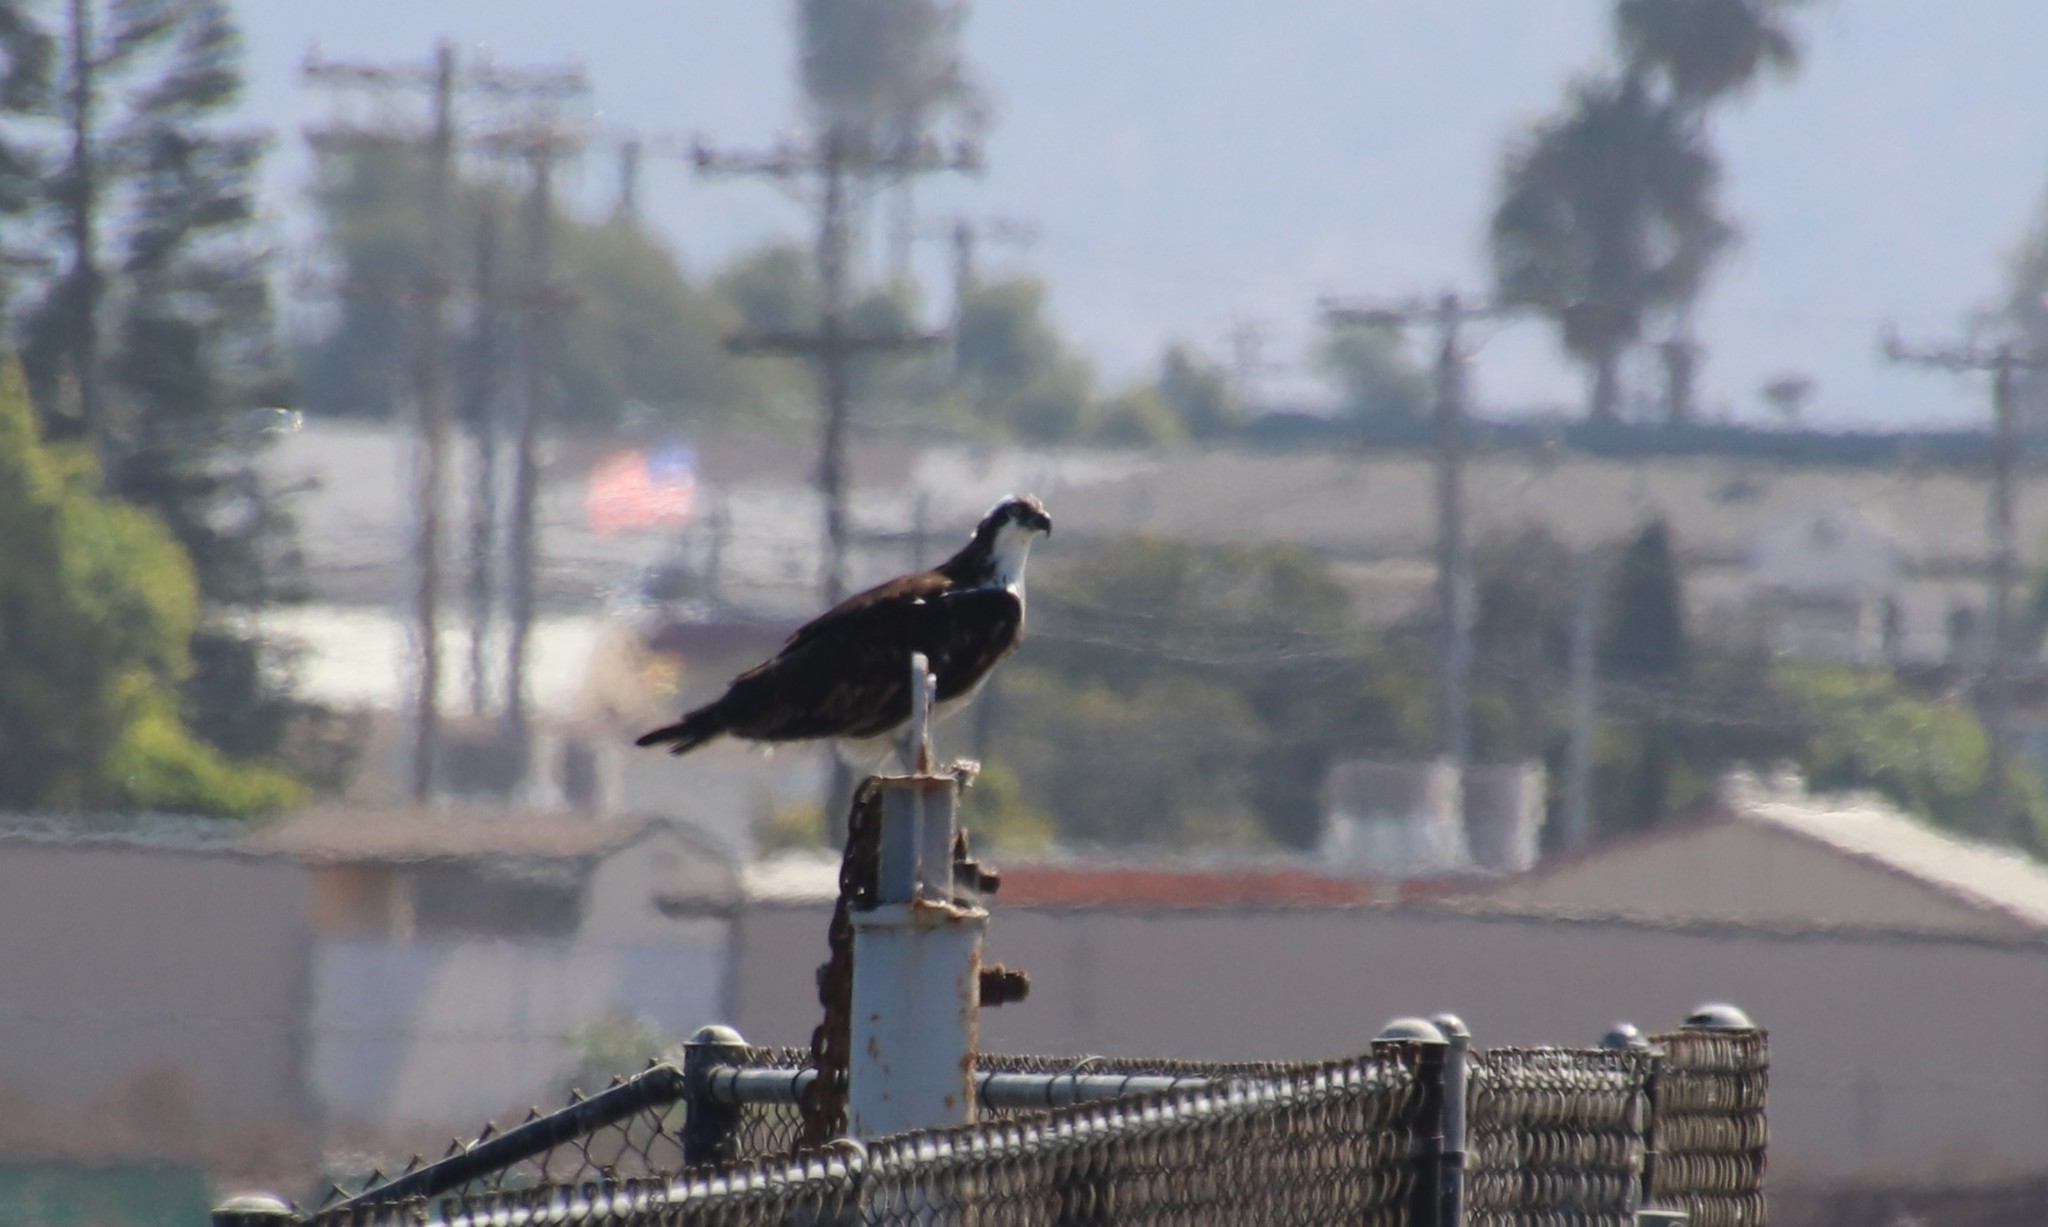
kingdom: Animalia
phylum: Chordata
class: Aves
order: Accipitriformes
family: Pandionidae
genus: Pandion
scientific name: Pandion haliaetus
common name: Osprey
